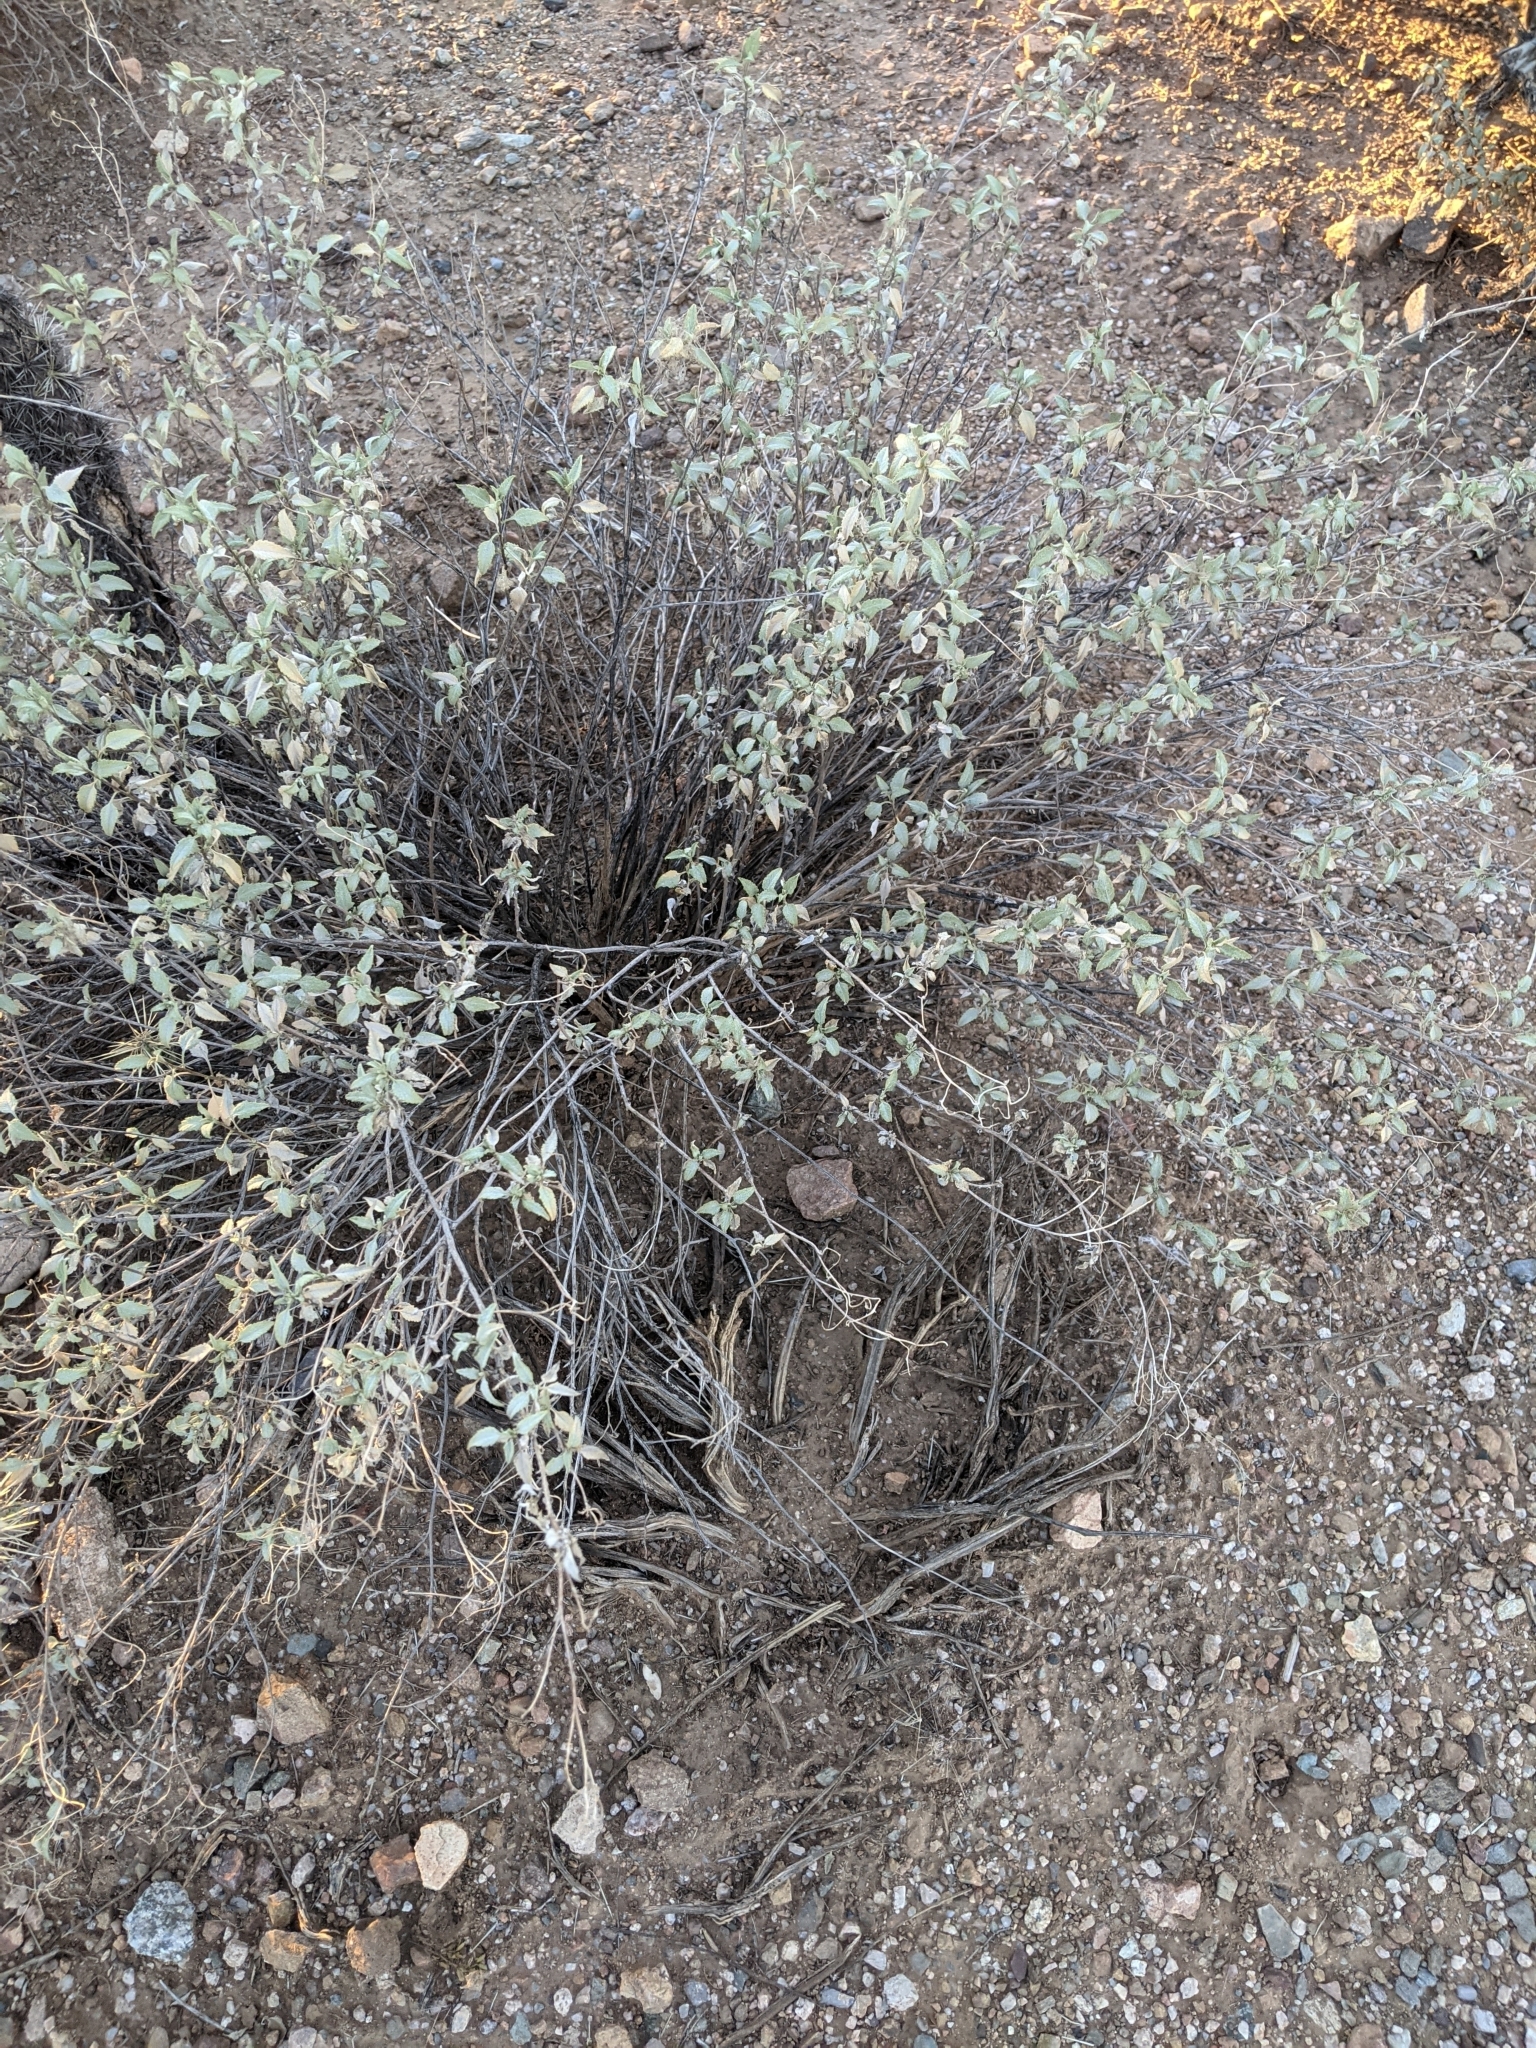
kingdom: Plantae
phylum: Tracheophyta
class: Magnoliopsida
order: Asterales
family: Asteraceae
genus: Ambrosia
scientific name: Ambrosia deltoidea
